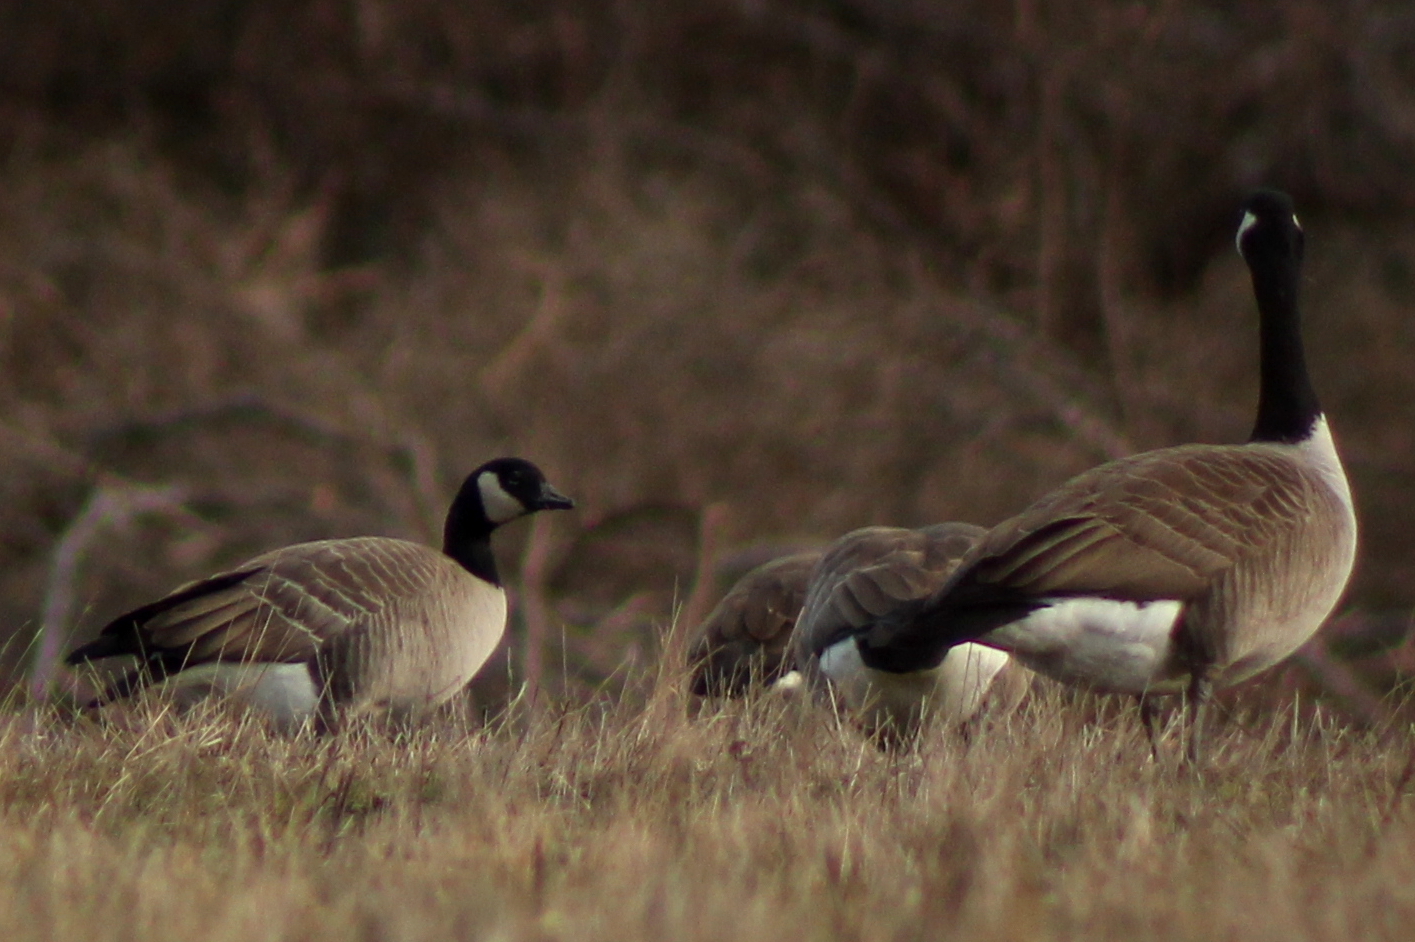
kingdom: Animalia
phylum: Chordata
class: Aves
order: Anseriformes
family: Anatidae
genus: Branta
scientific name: Branta hutchinsii
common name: Cackling goose
